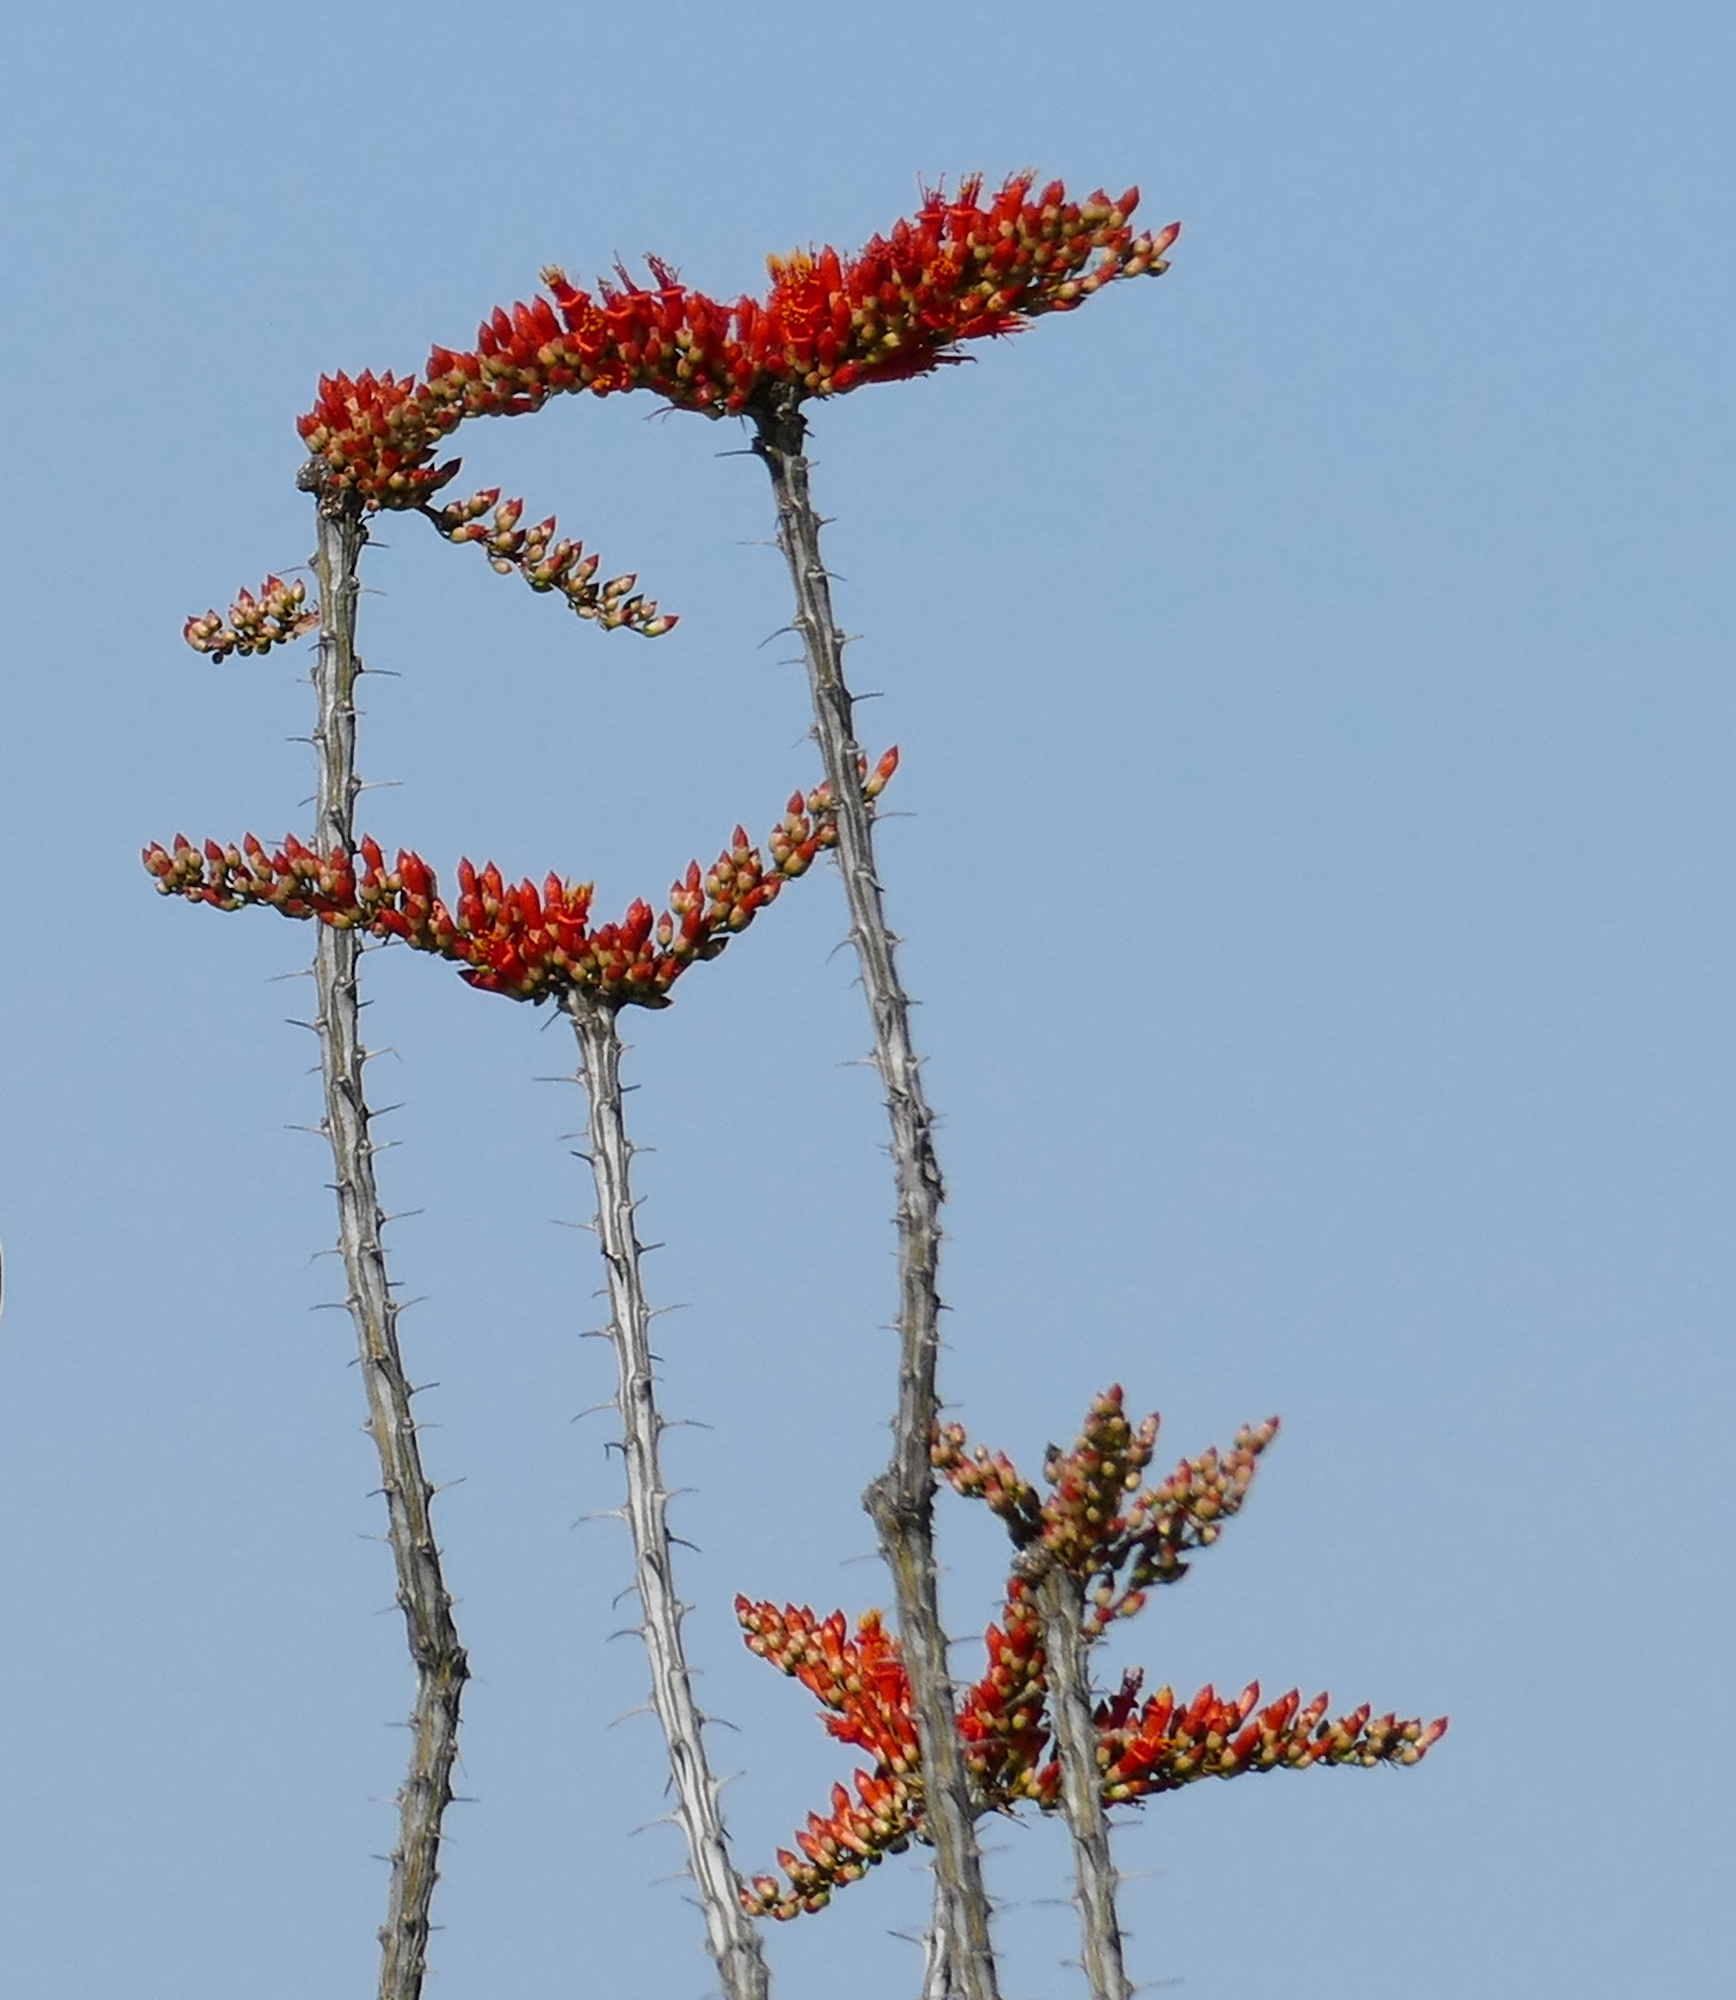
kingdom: Plantae
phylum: Tracheophyta
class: Magnoliopsida
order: Ericales
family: Fouquieriaceae
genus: Fouquieria
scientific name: Fouquieria splendens
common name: Vine-cactus
